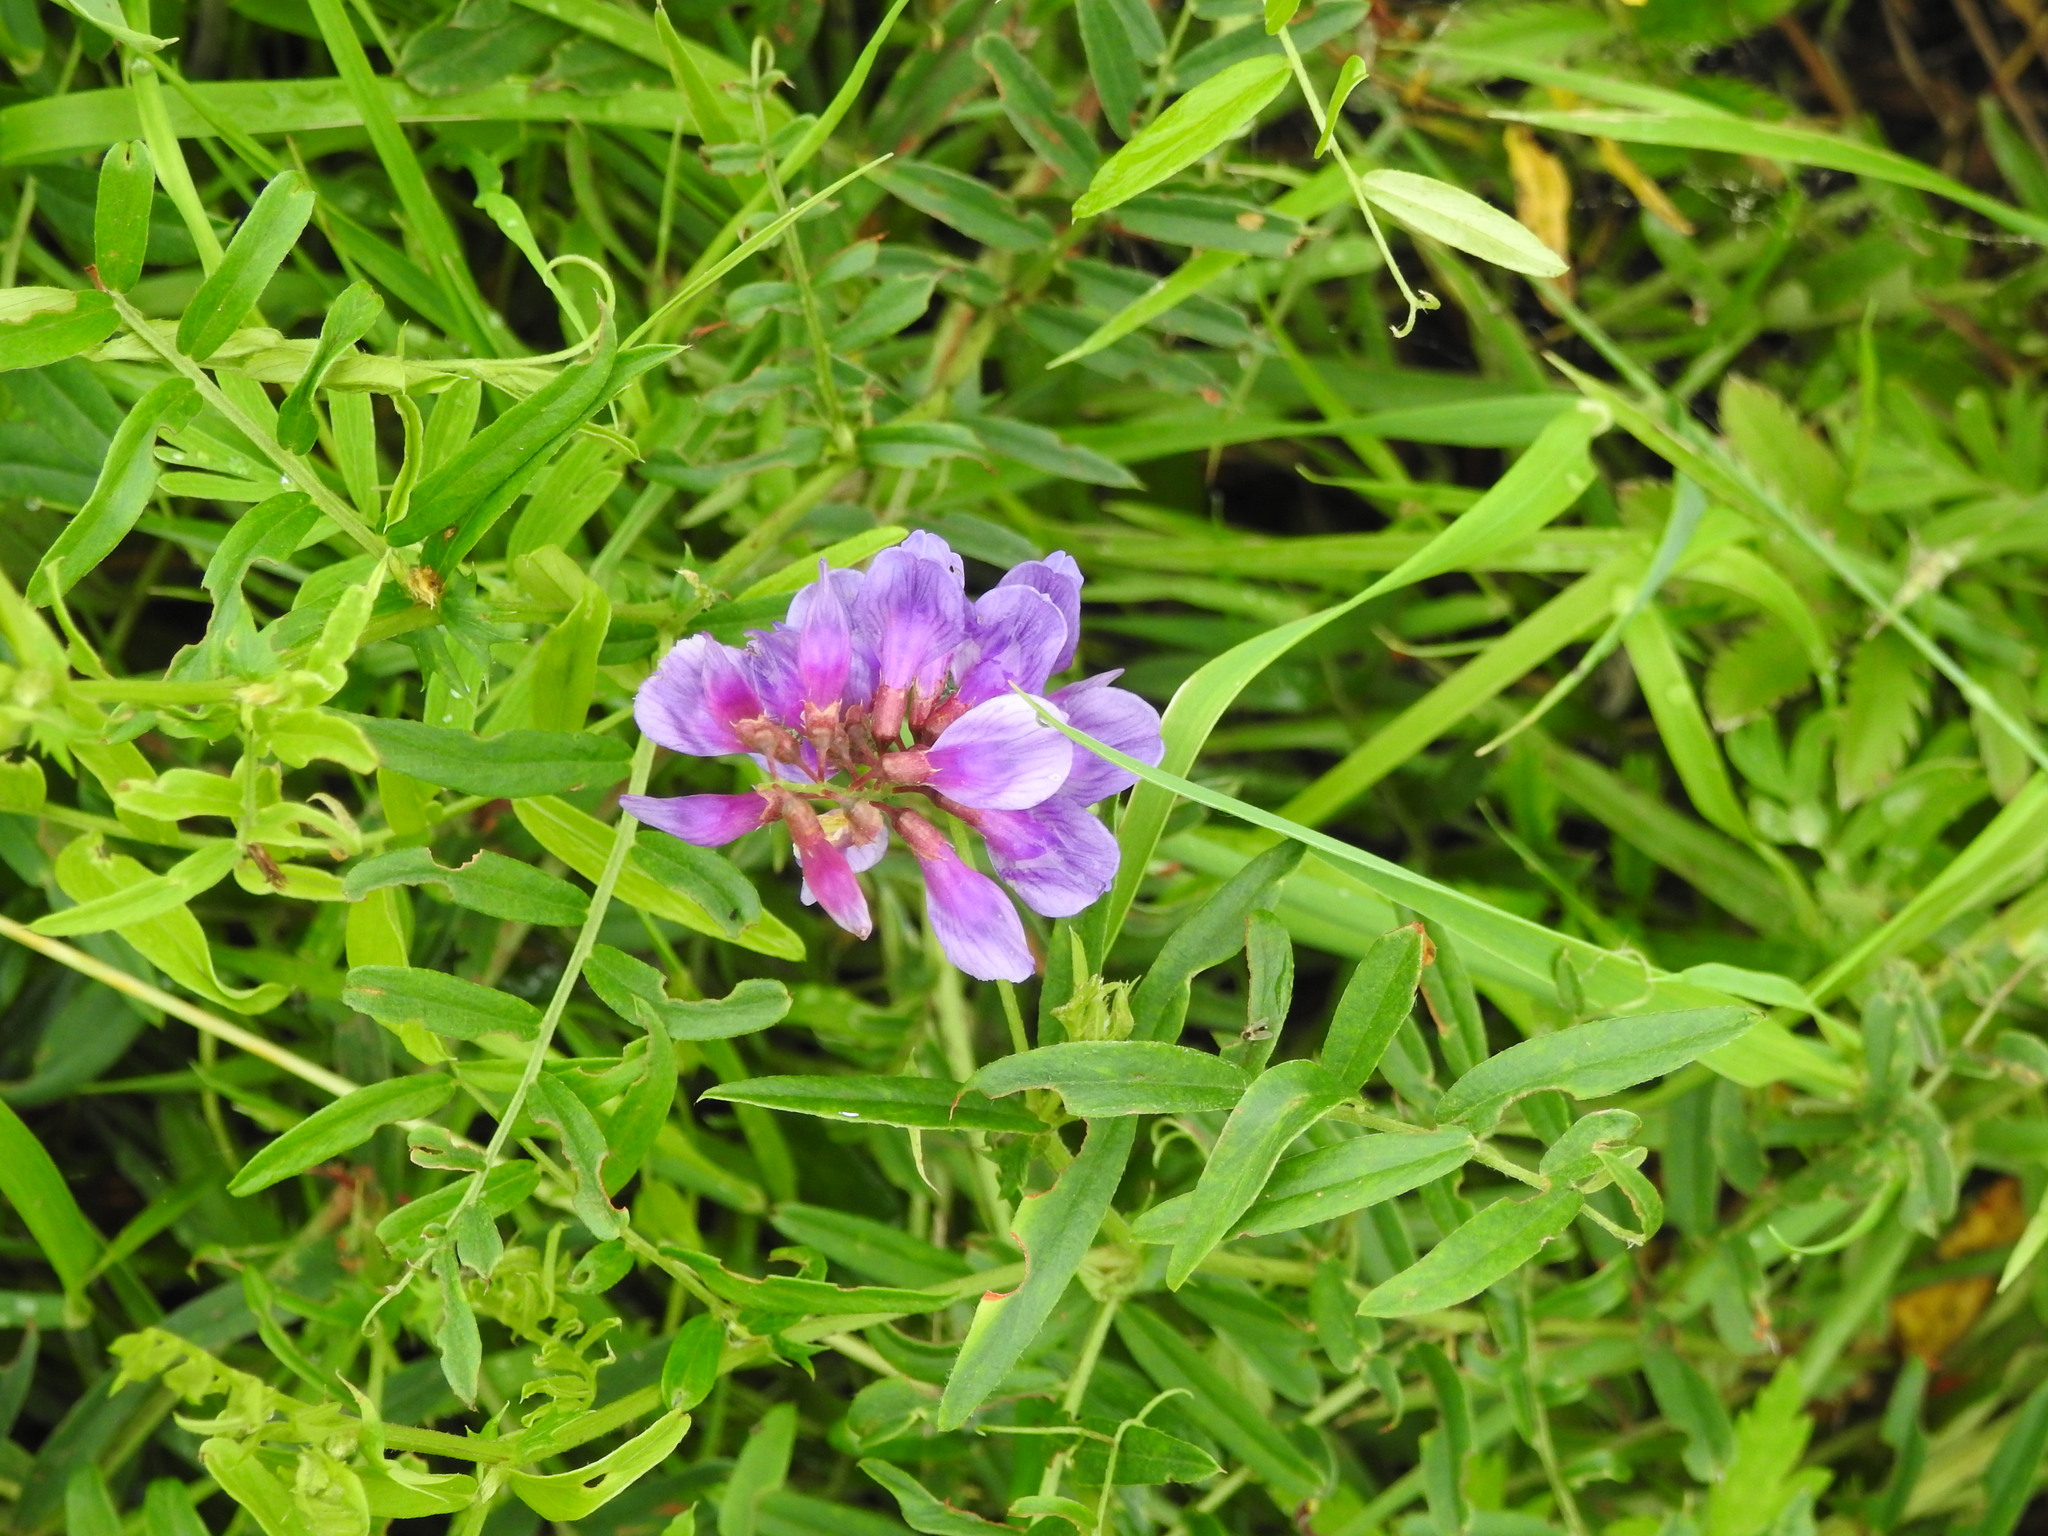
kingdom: Plantae
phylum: Tracheophyta
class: Magnoliopsida
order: Fabales
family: Fabaceae
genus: Vicia
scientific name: Vicia amoena
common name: Cheder ebs
